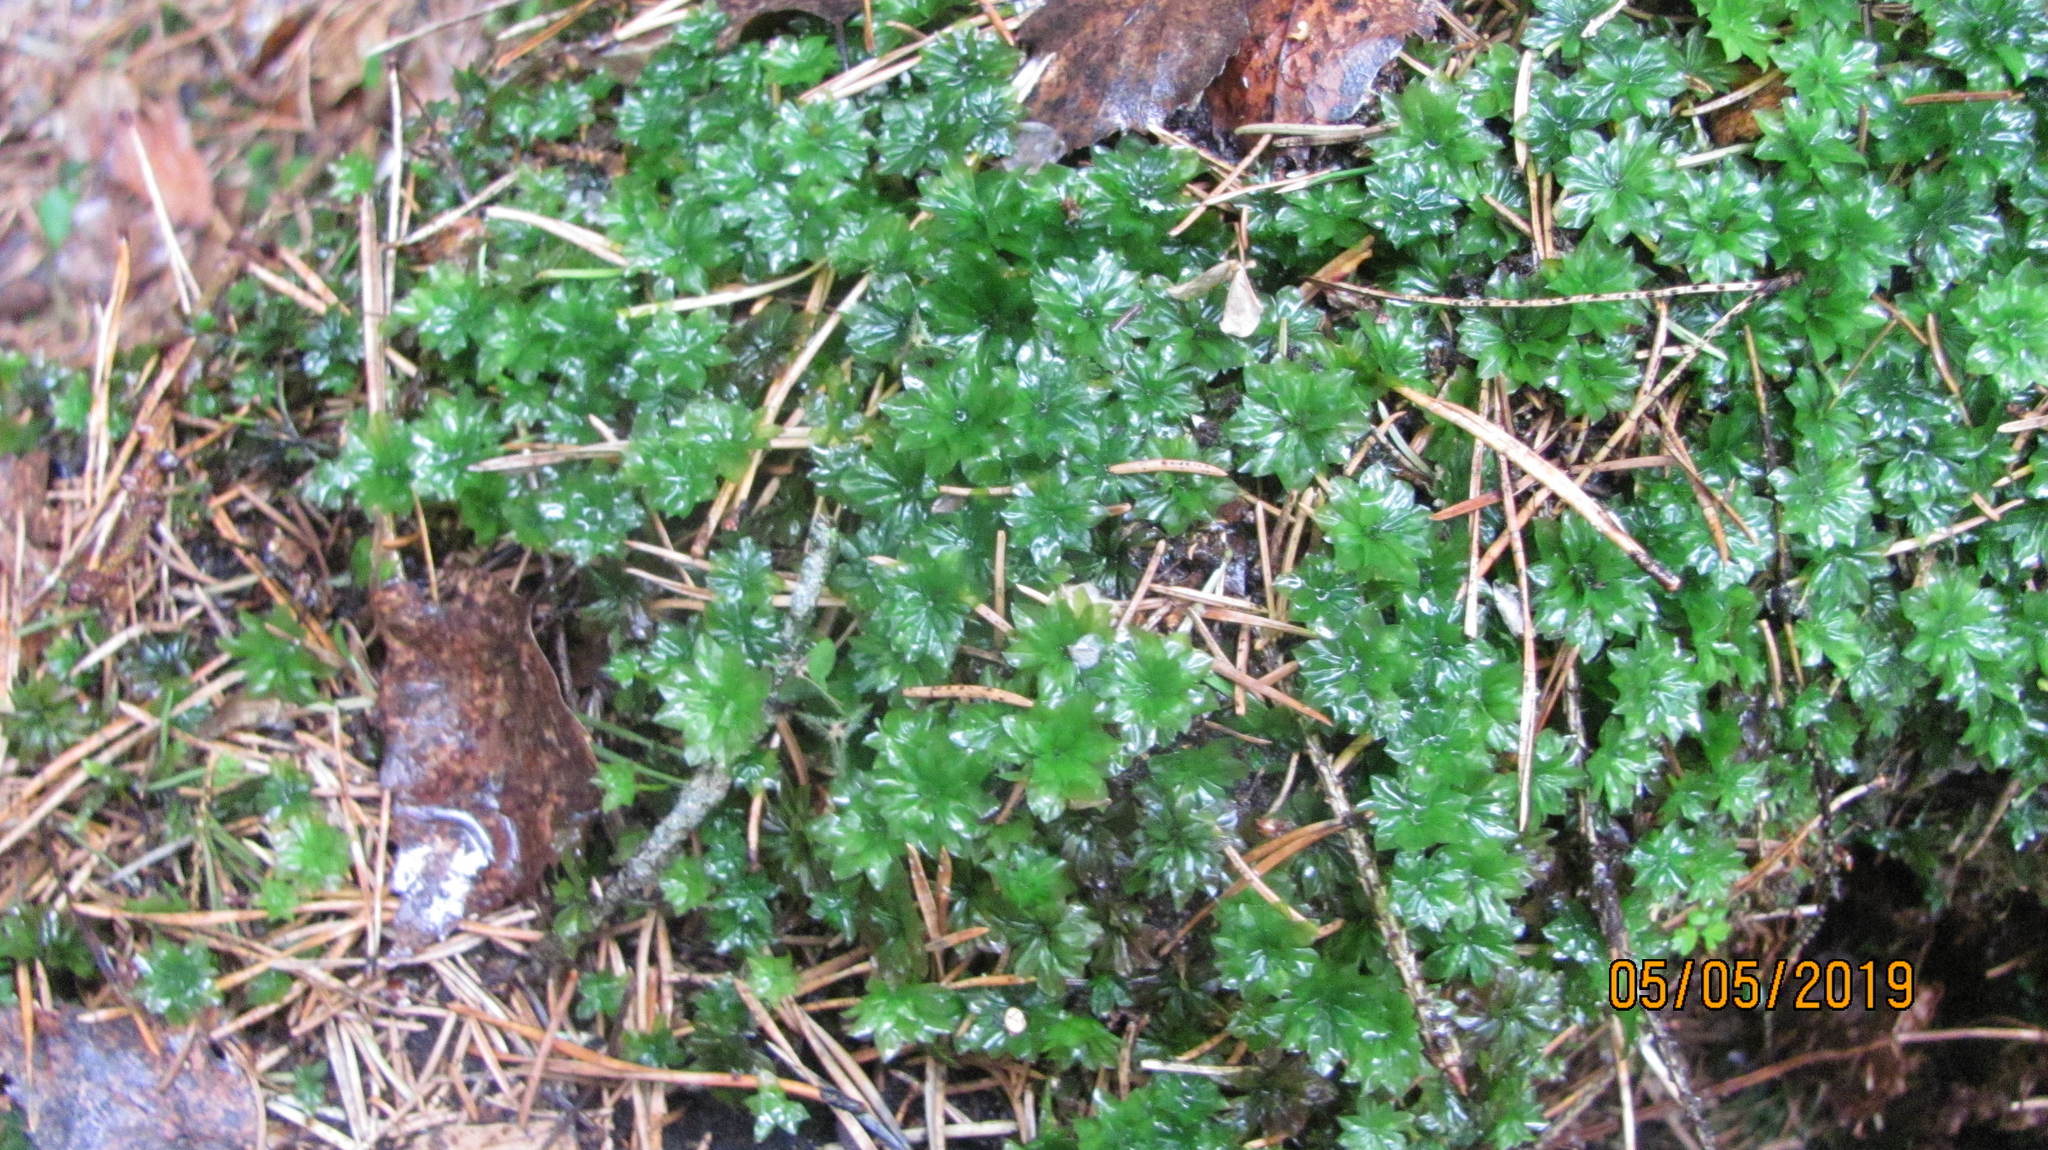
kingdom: Plantae
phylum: Bryophyta
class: Bryopsida
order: Bryales
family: Bryaceae
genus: Rhodobryum
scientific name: Rhodobryum roseum
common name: Rose-moss
